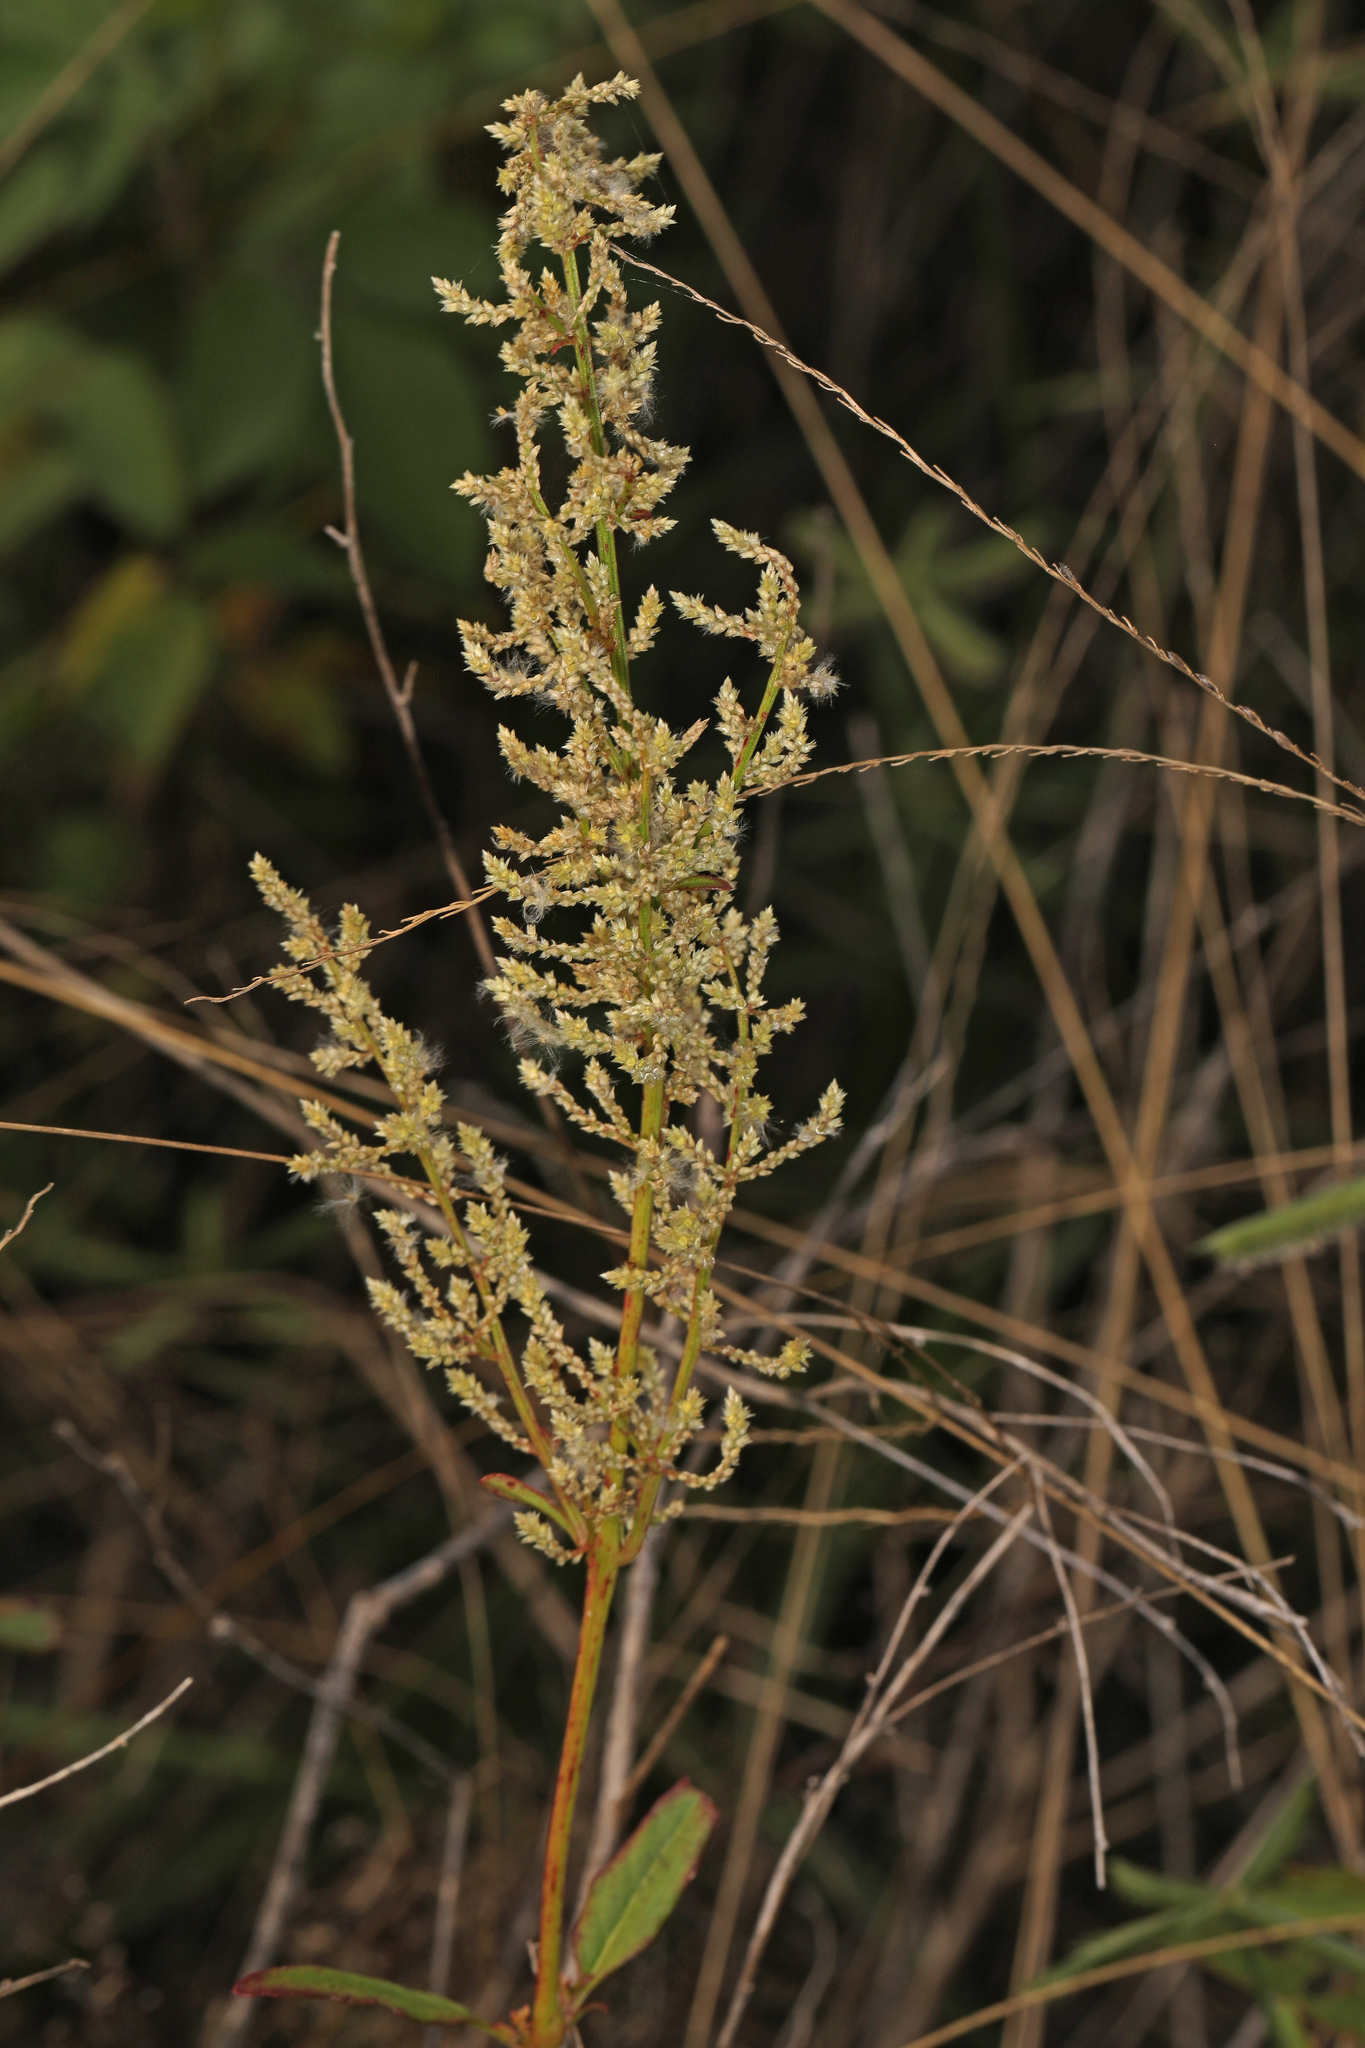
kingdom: Plantae
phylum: Tracheophyta
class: Magnoliopsida
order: Caryophyllales
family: Amaranthaceae
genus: Iresine
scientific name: Iresine diffusa
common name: Juba's-bush
